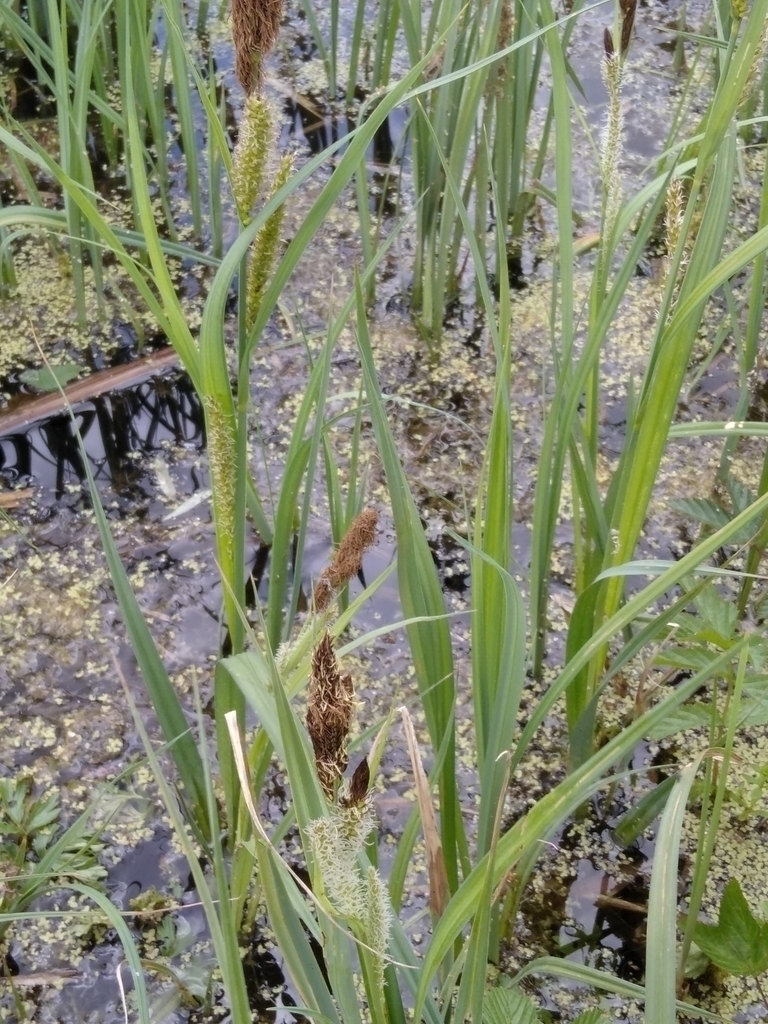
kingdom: Plantae
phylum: Tracheophyta
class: Liliopsida
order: Poales
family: Cyperaceae
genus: Carex
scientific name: Carex riparia
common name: Greater pond-sedge
